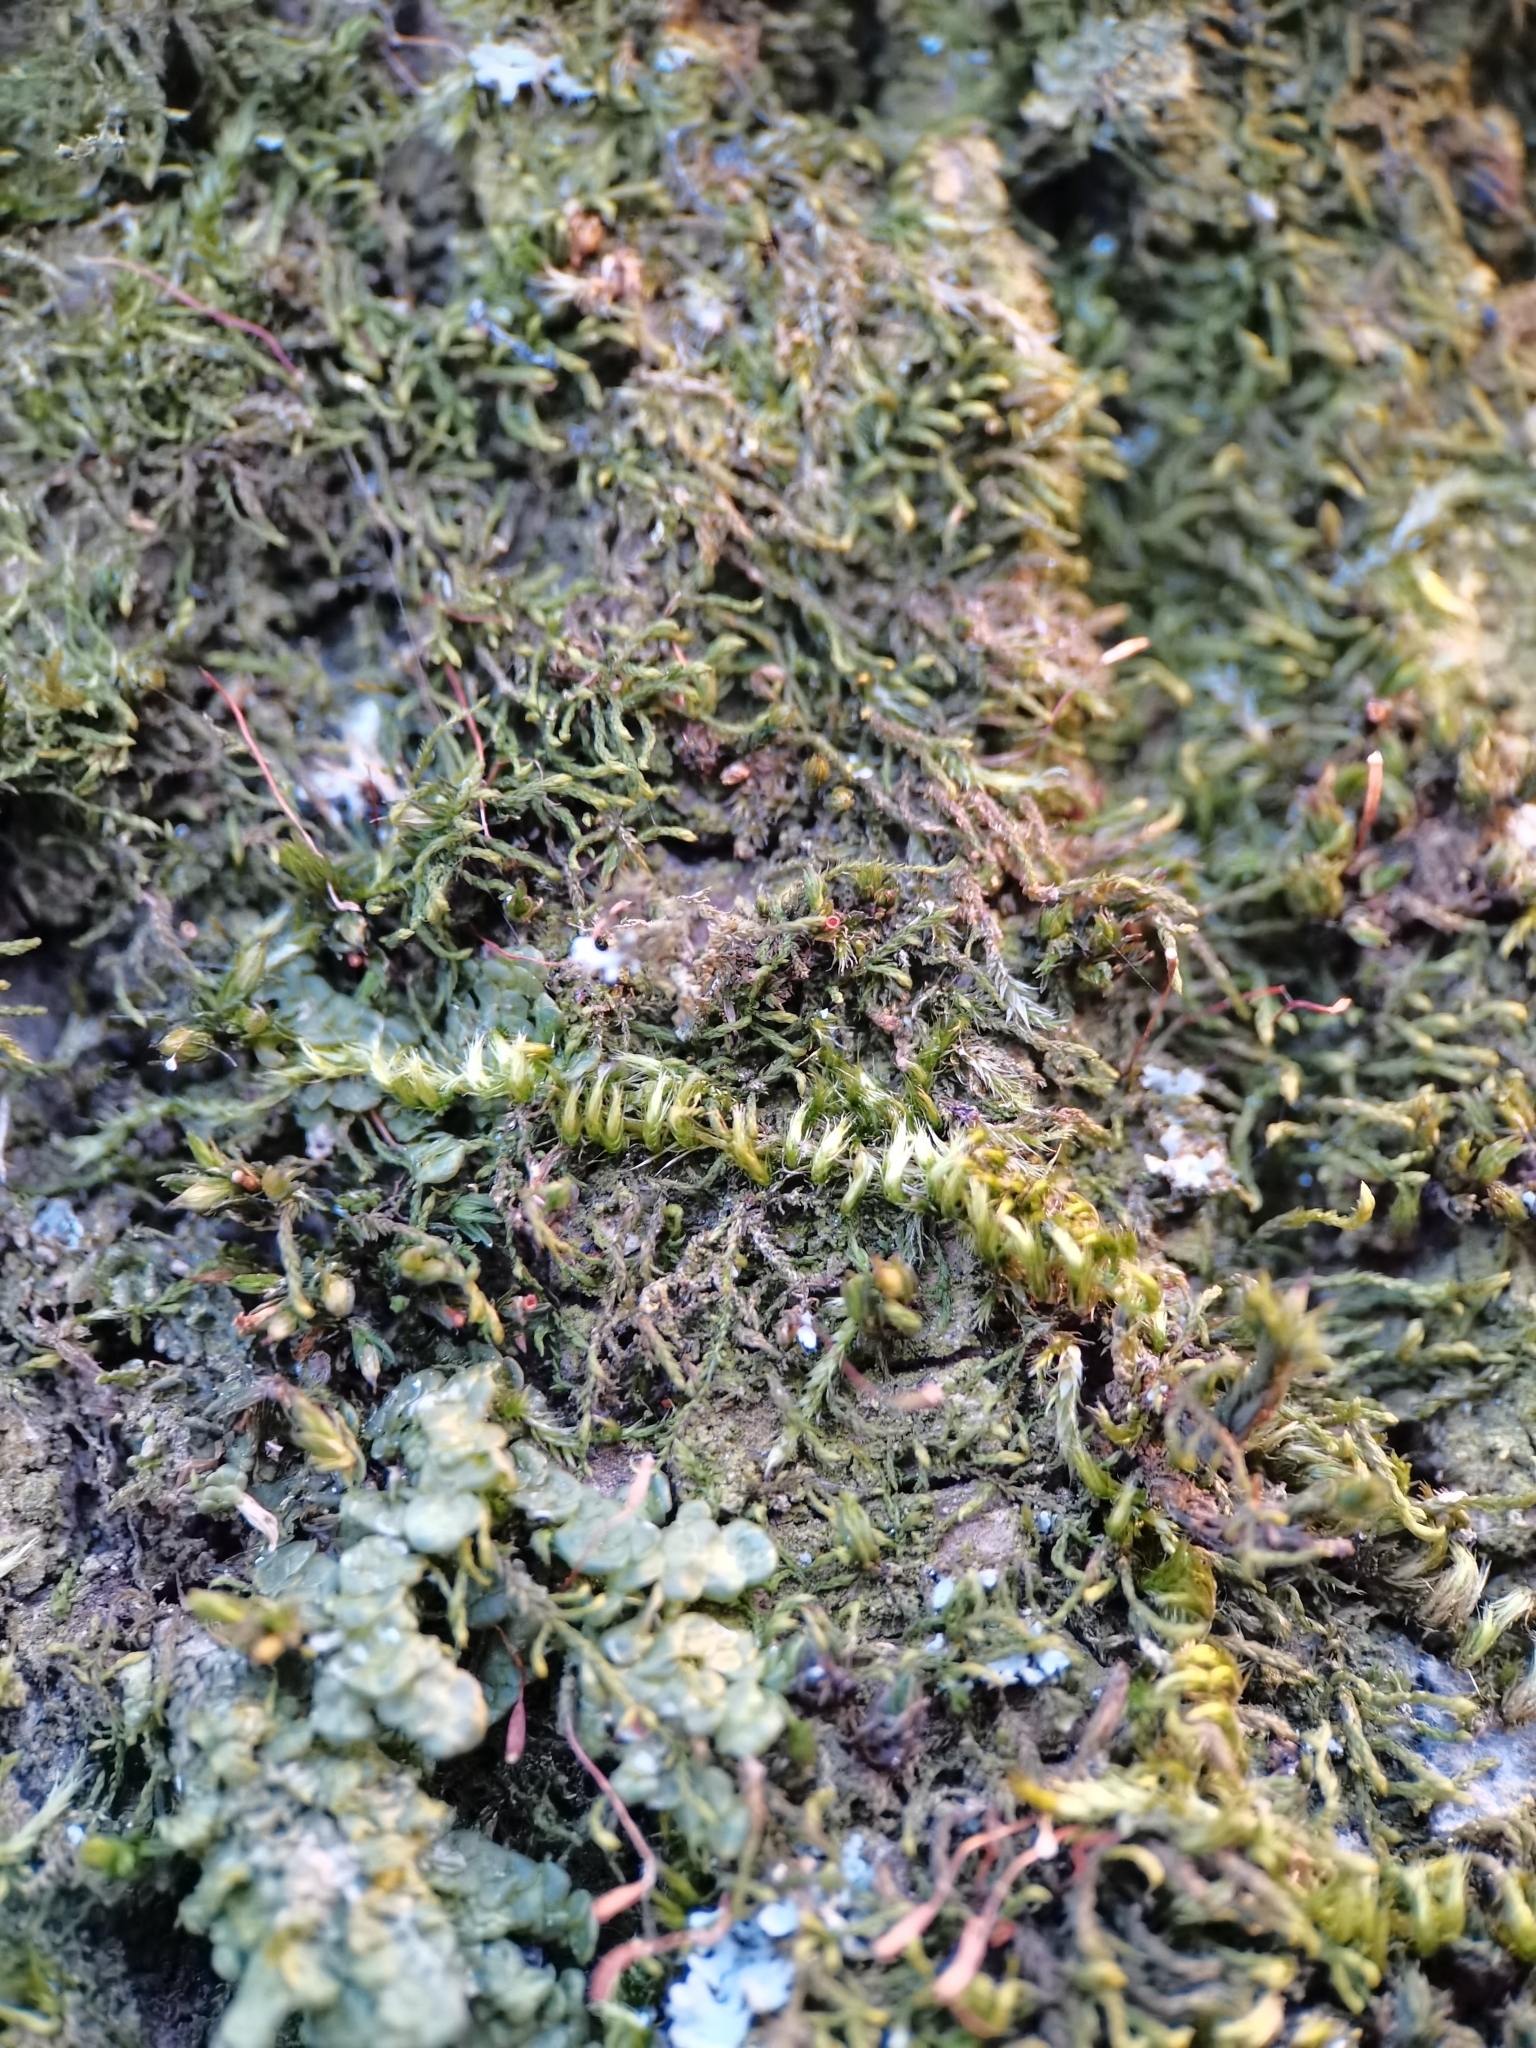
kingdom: Plantae
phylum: Bryophyta
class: Bryopsida
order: Hypnales
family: Brachytheciaceae
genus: Homalothecium
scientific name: Homalothecium sericeum
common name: Silky wall feather-moss
